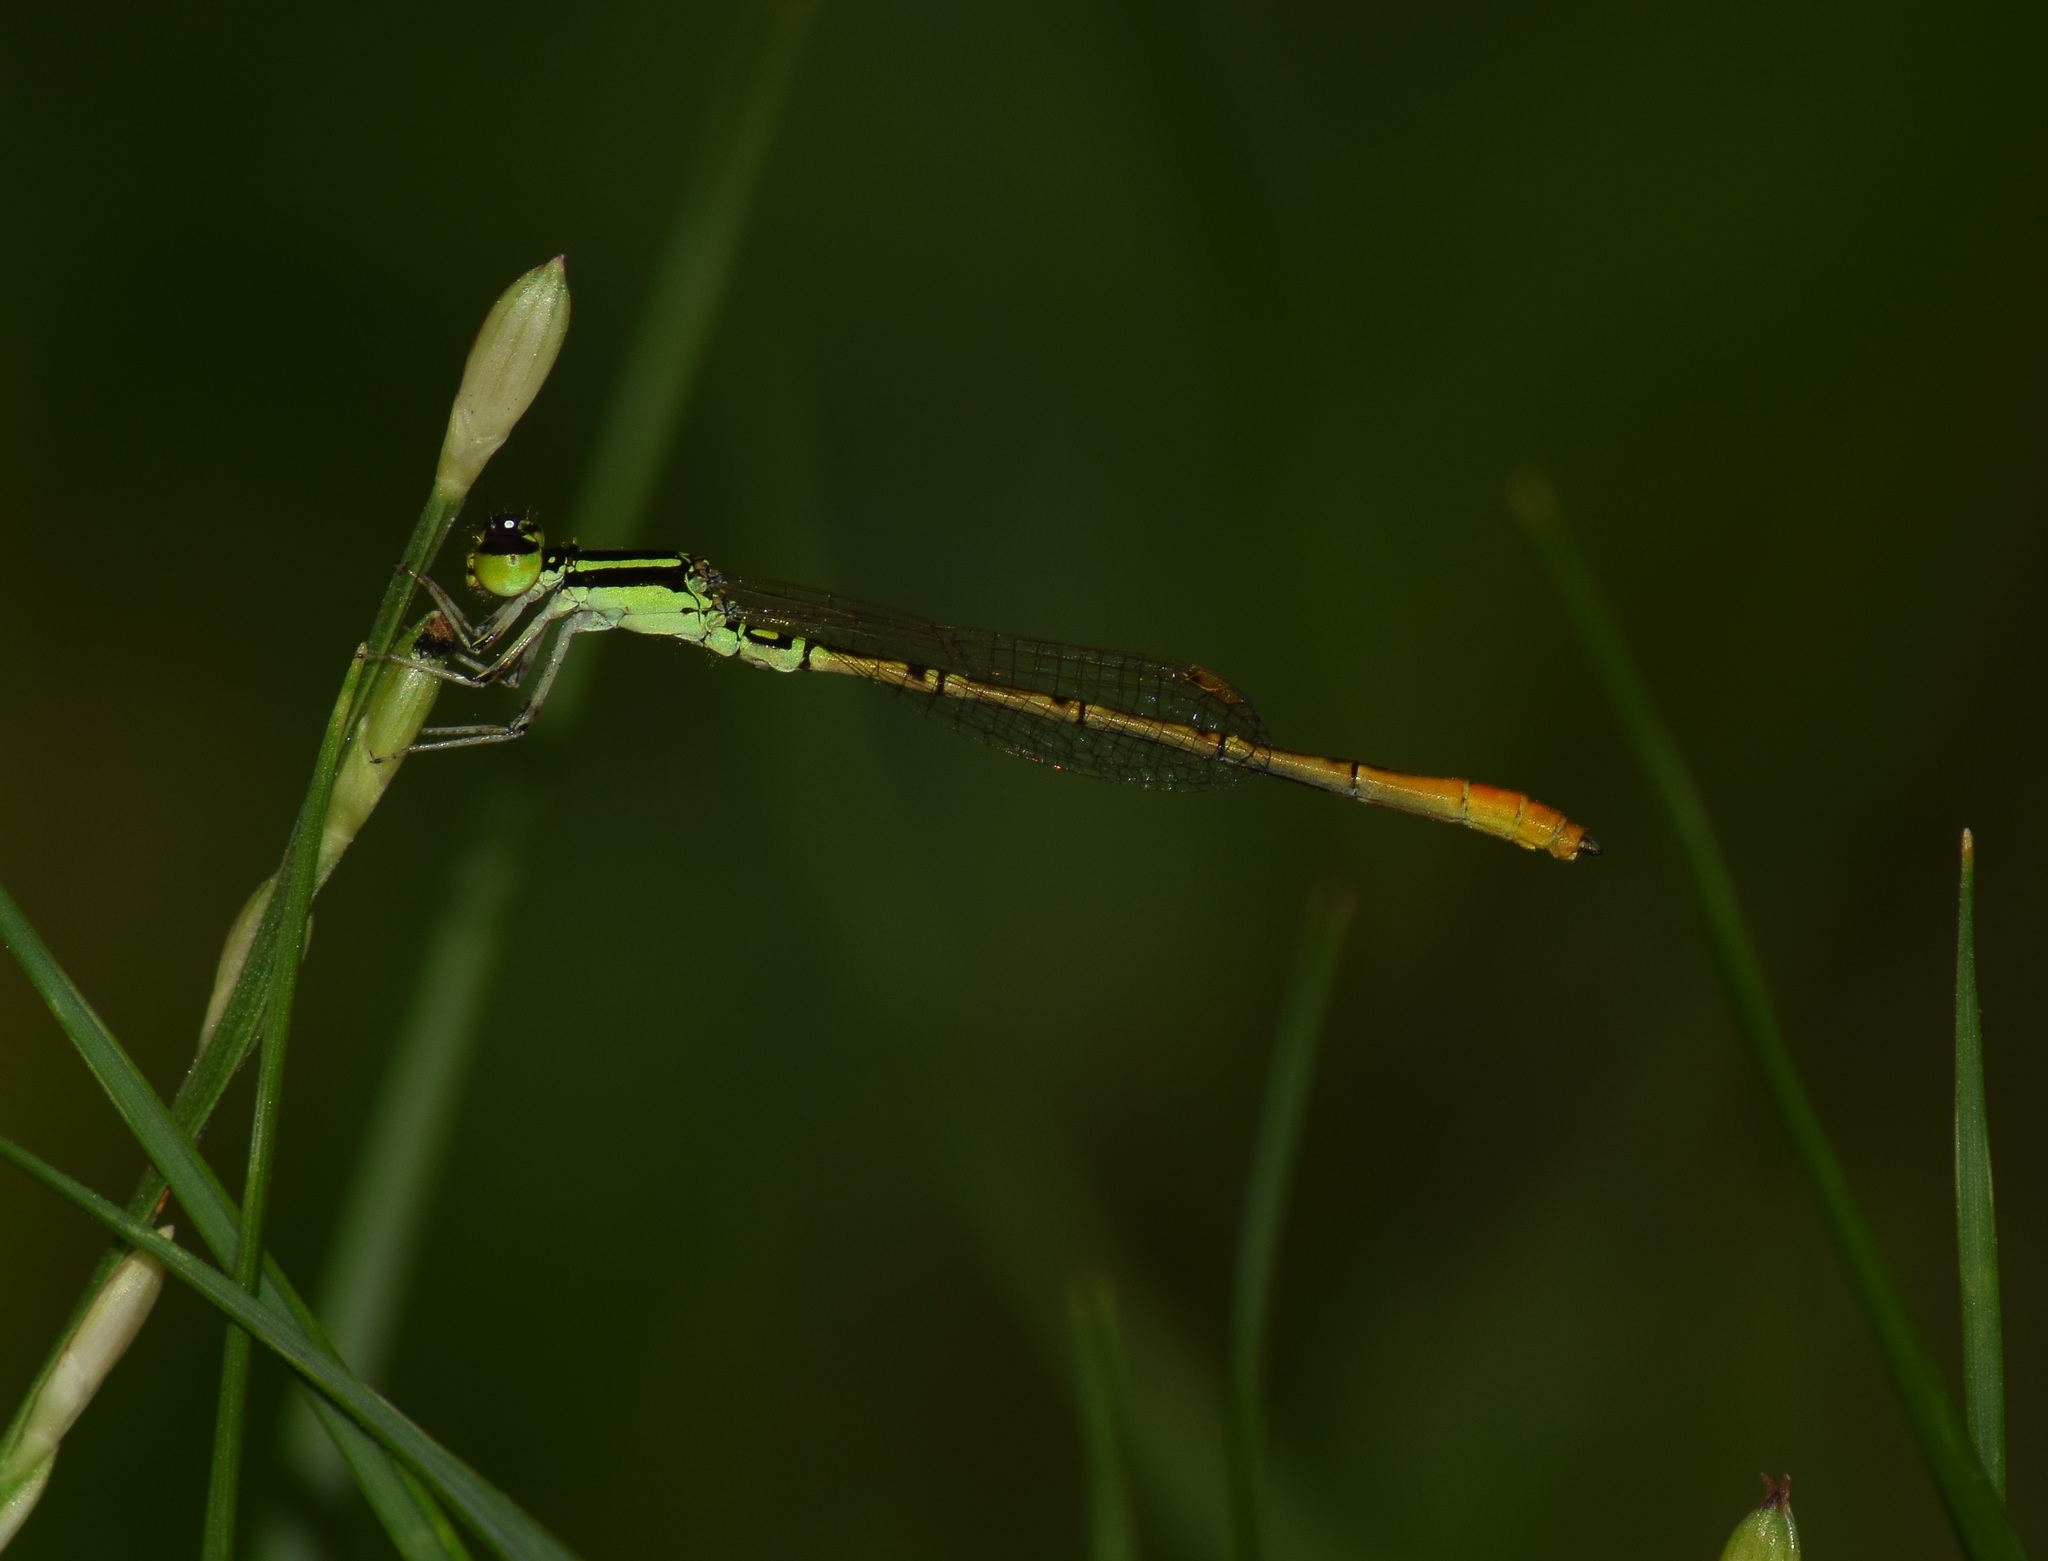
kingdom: Animalia
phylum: Arthropoda
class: Insecta
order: Odonata
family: Coenagrionidae
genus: Agriocnemis
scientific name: Agriocnemis keralensis
